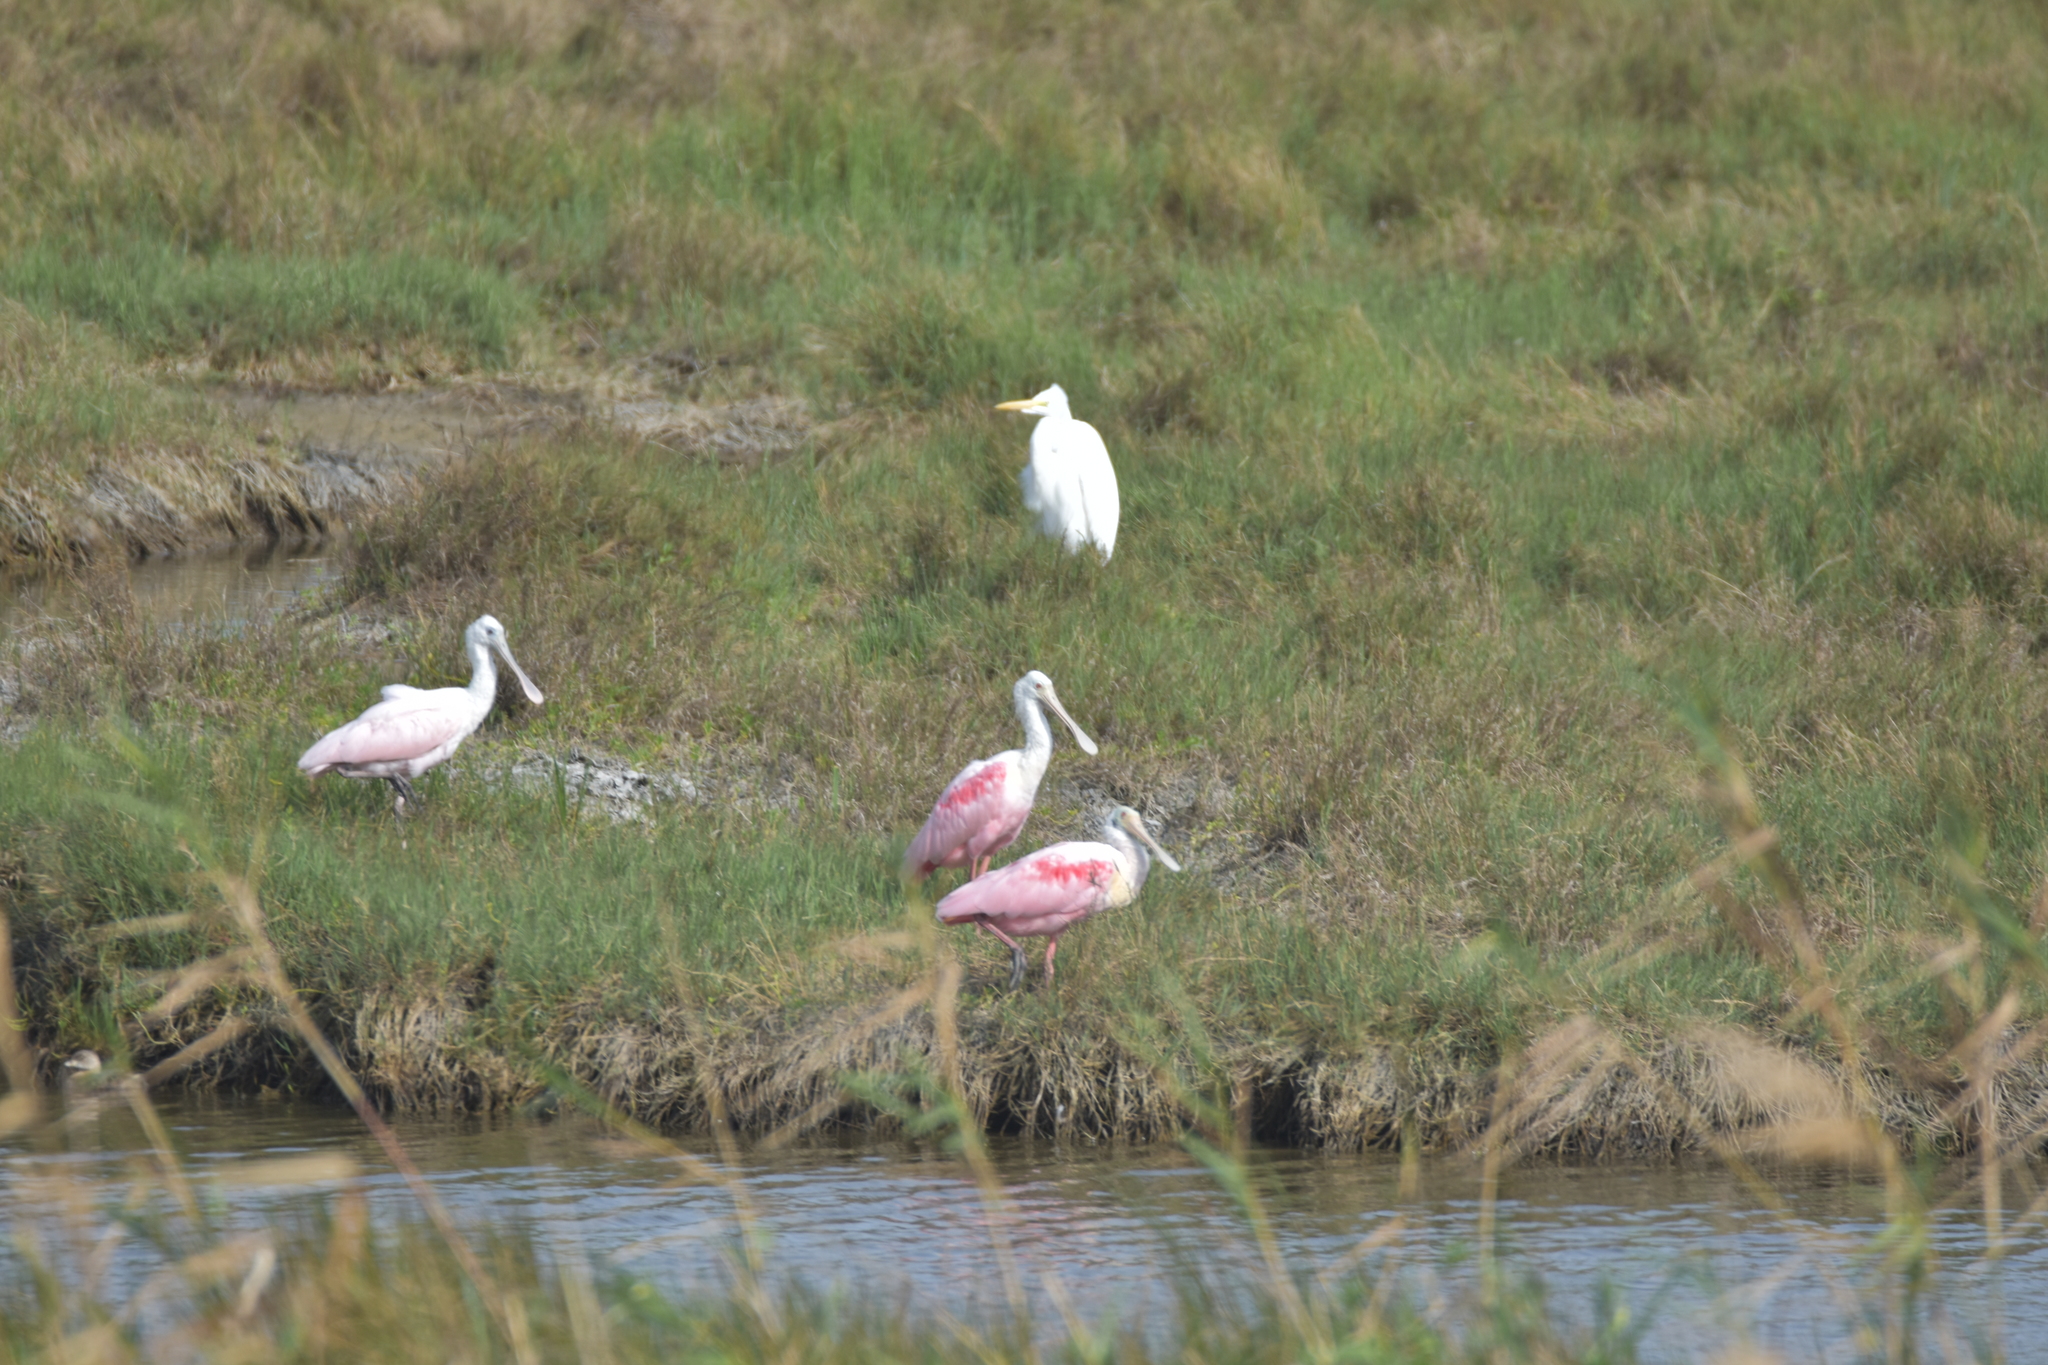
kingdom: Animalia
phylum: Chordata
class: Aves
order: Pelecaniformes
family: Threskiornithidae
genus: Platalea
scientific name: Platalea ajaja
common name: Roseate spoonbill
